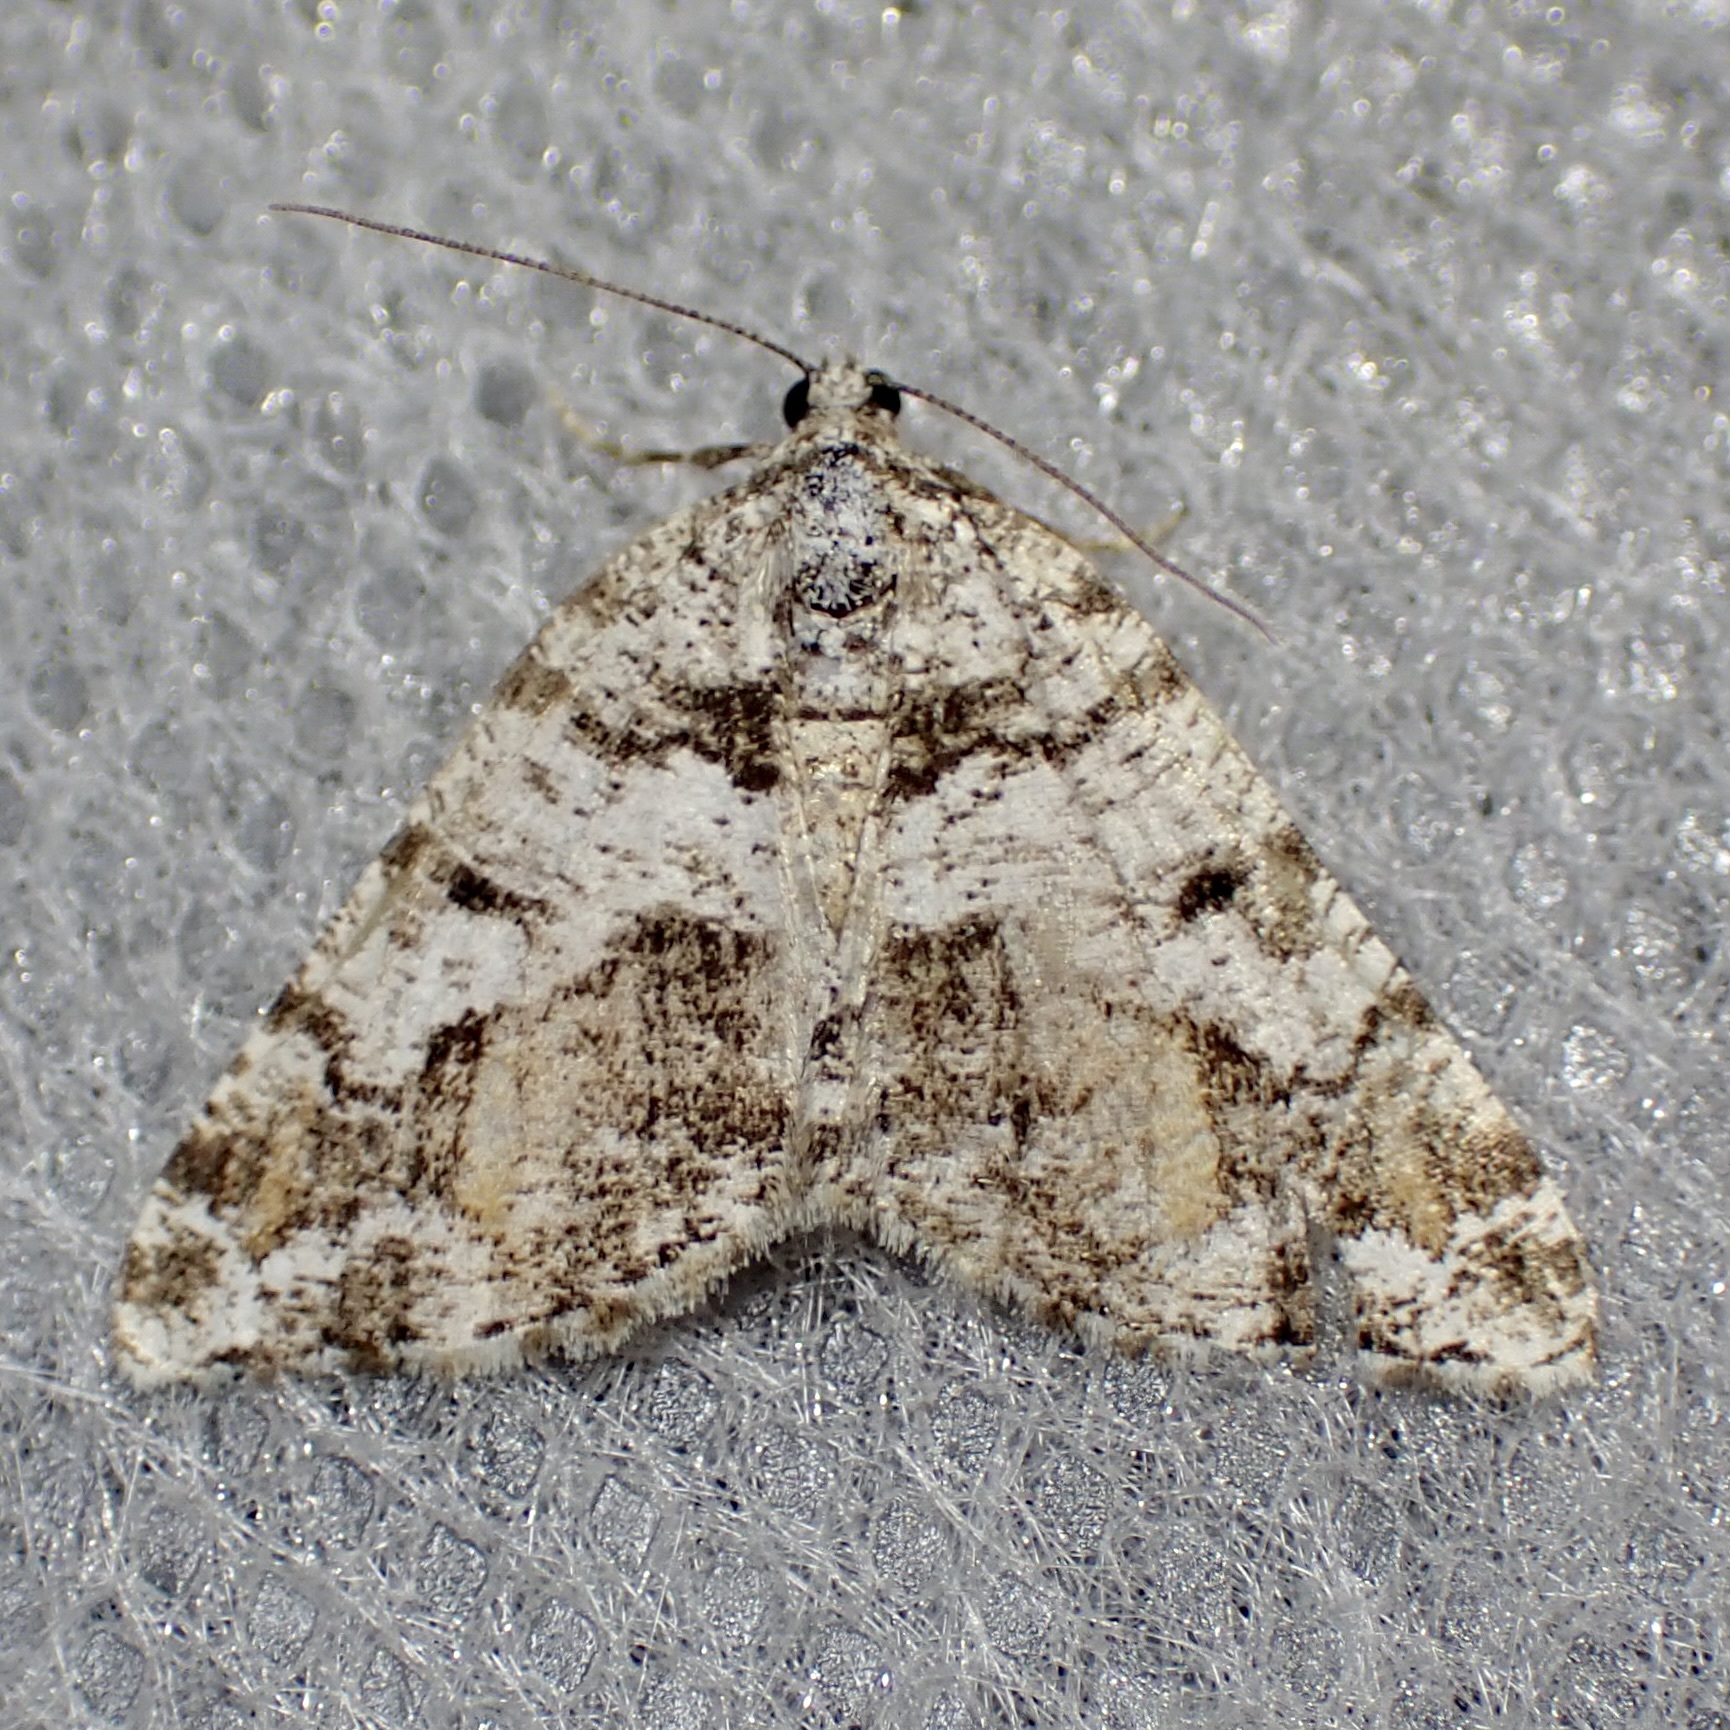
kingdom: Animalia
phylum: Arthropoda
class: Insecta
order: Lepidoptera
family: Geometridae
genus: Macaria
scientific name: Macaria deceptrix
